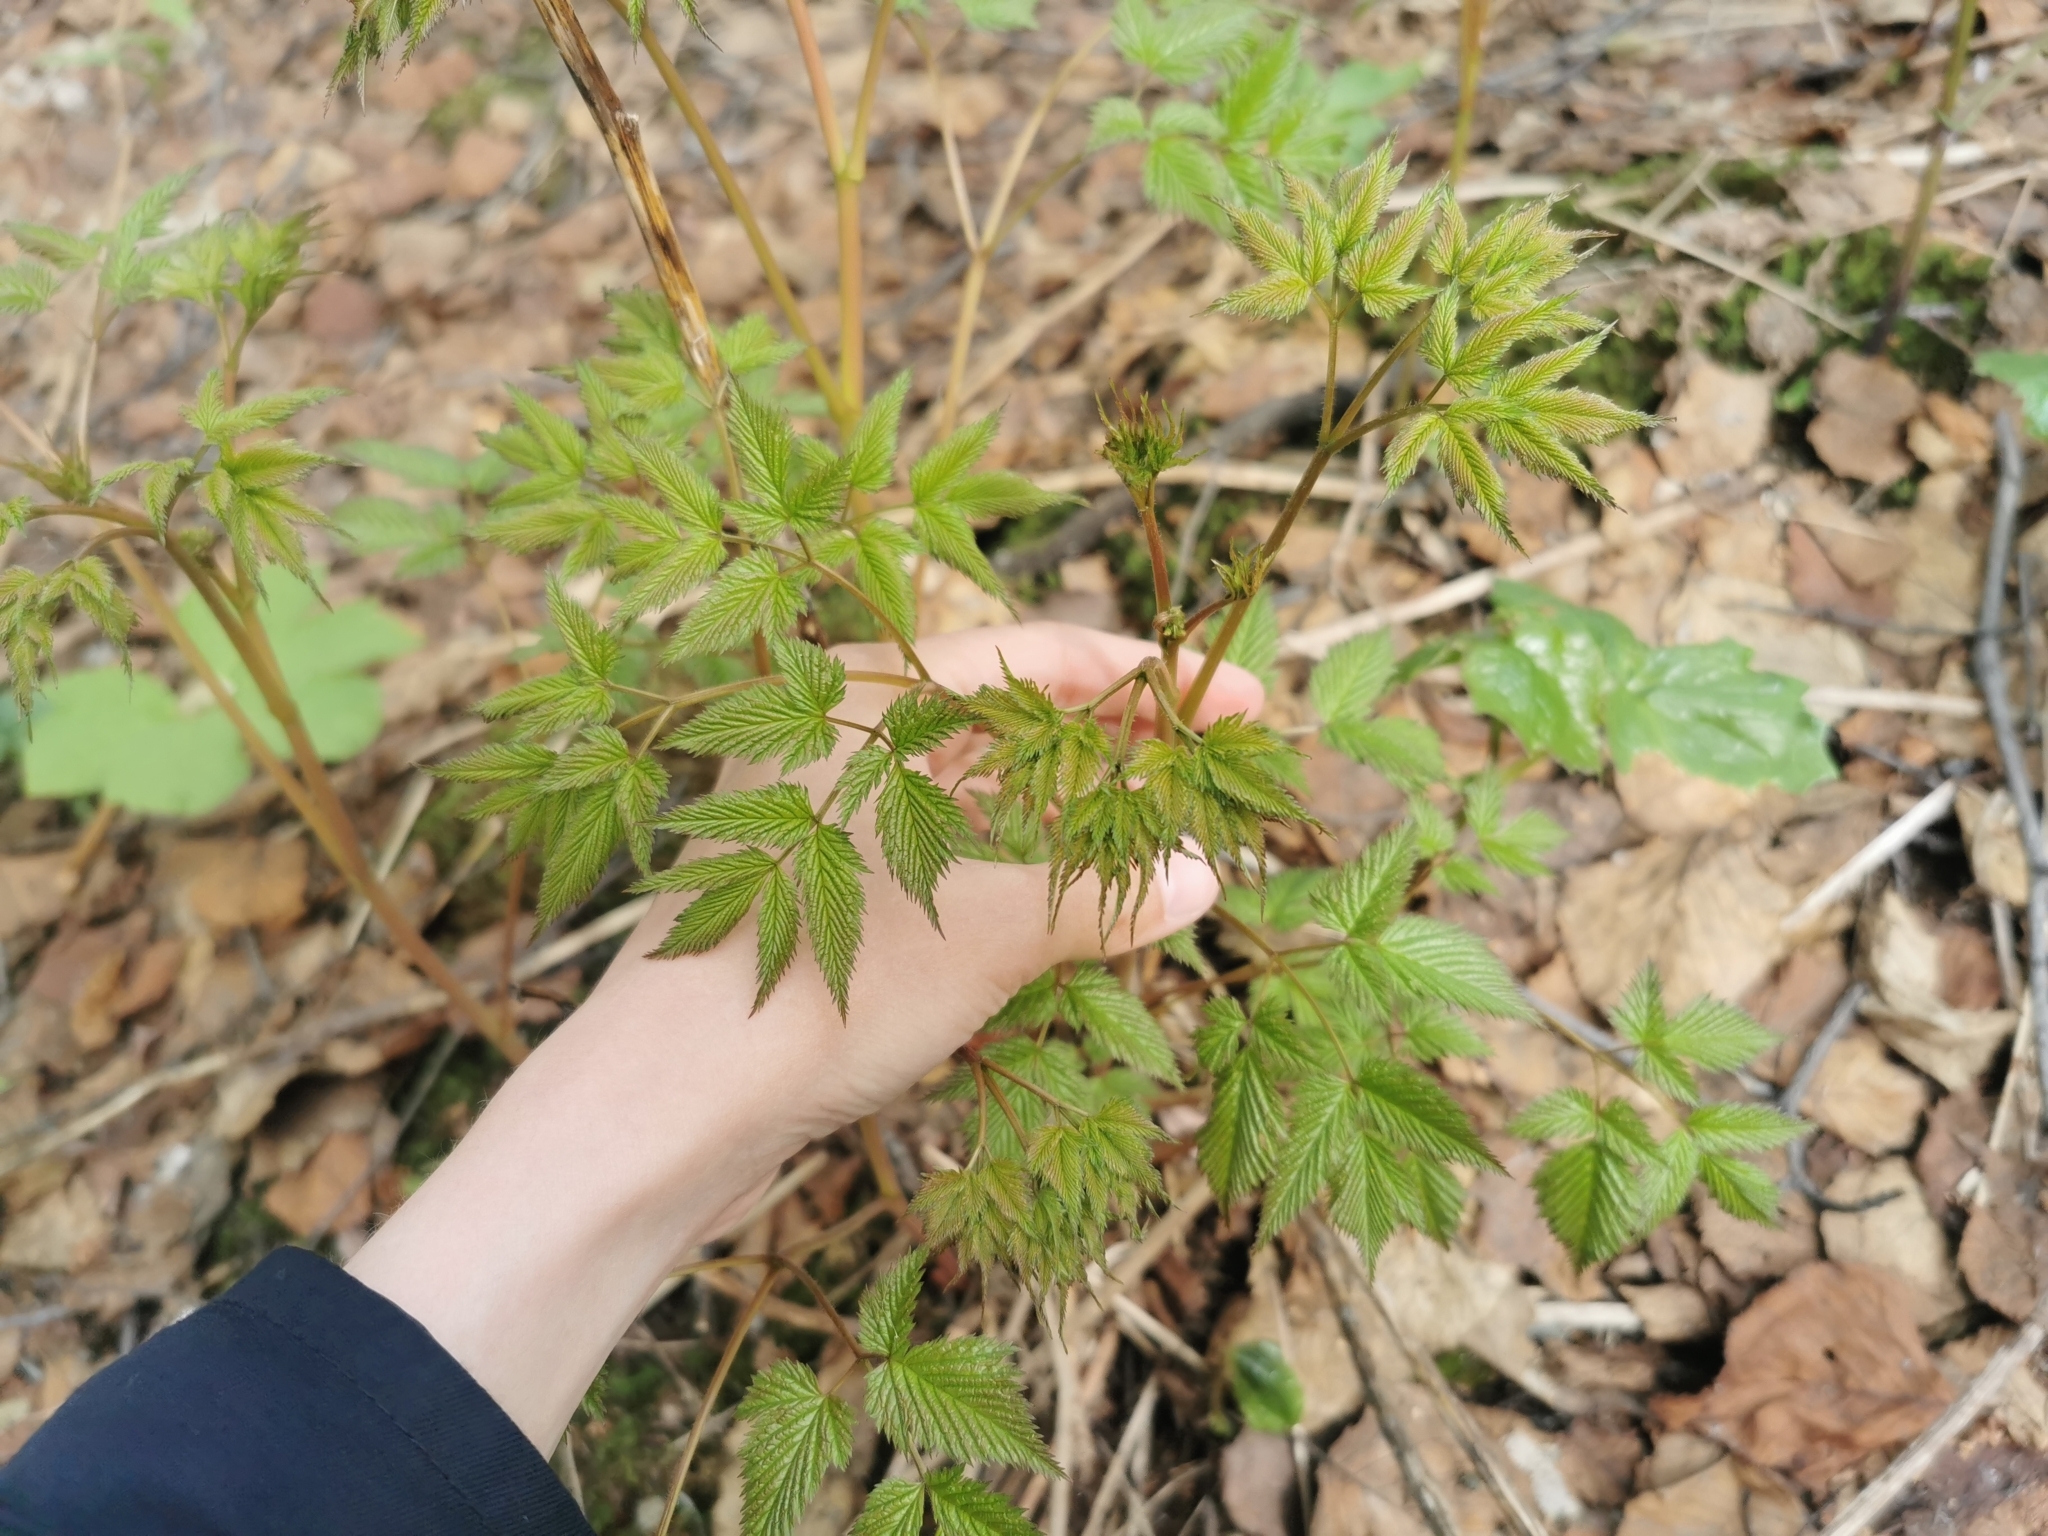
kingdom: Plantae
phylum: Tracheophyta
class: Magnoliopsida
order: Rosales
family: Rosaceae
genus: Aruncus
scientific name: Aruncus dioicus
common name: Buck's-beard
